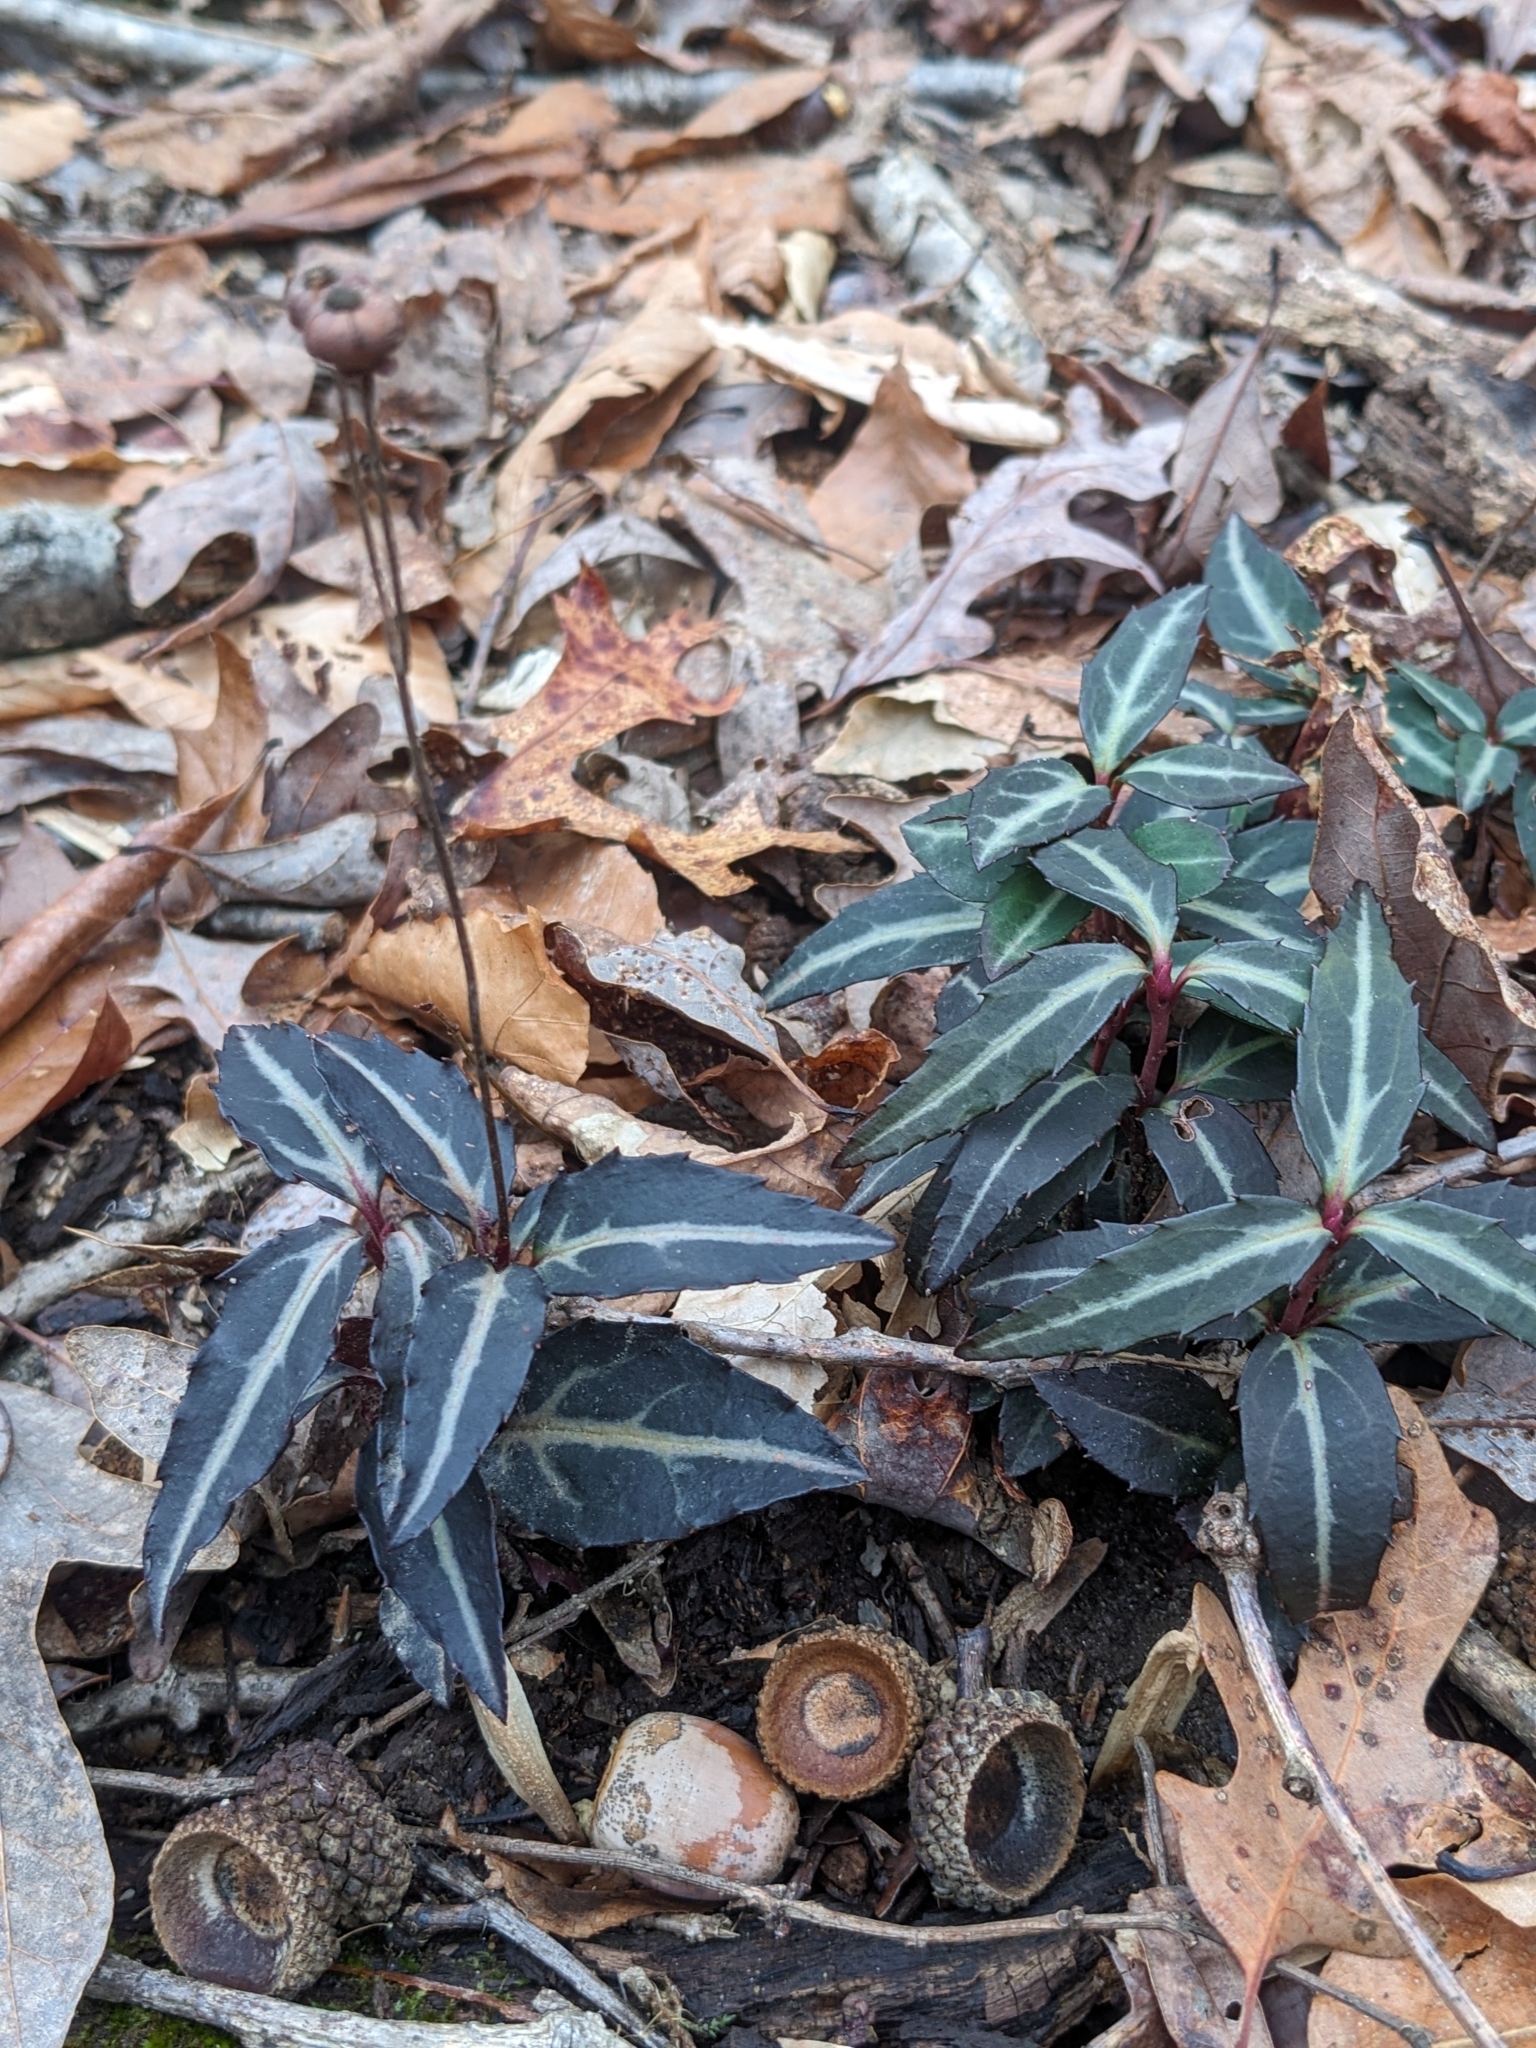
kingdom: Plantae
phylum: Tracheophyta
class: Magnoliopsida
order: Ericales
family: Ericaceae
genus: Chimaphila
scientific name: Chimaphila maculata
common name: Spotted pipsissewa
